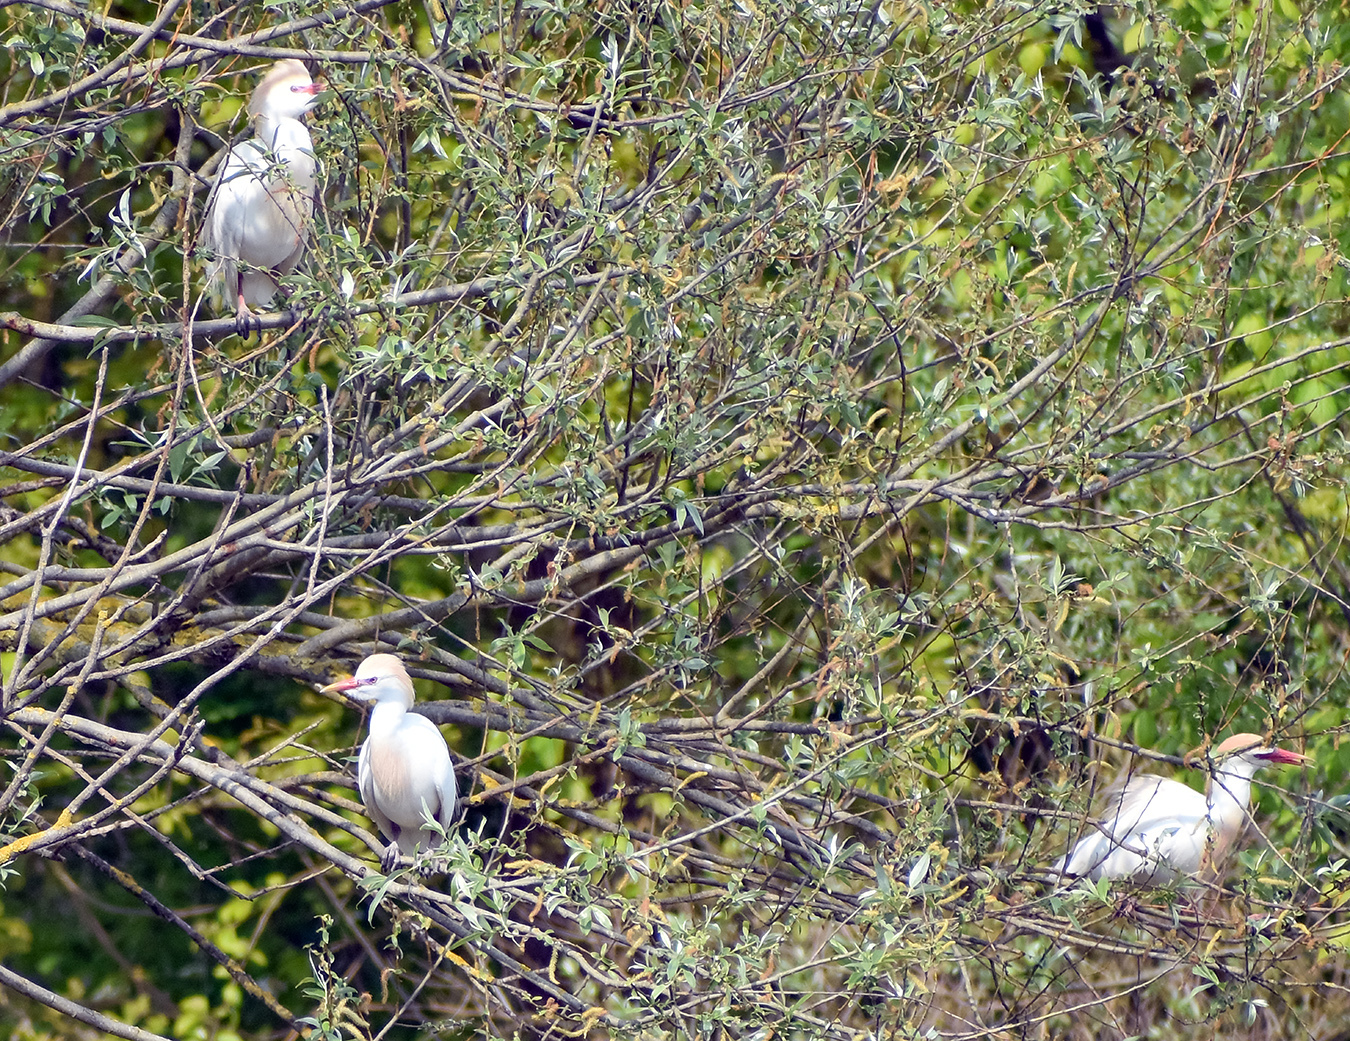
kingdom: Animalia
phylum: Chordata
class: Aves
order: Pelecaniformes
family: Ardeidae
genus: Bubulcus
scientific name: Bubulcus ibis
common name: Cattle egret
